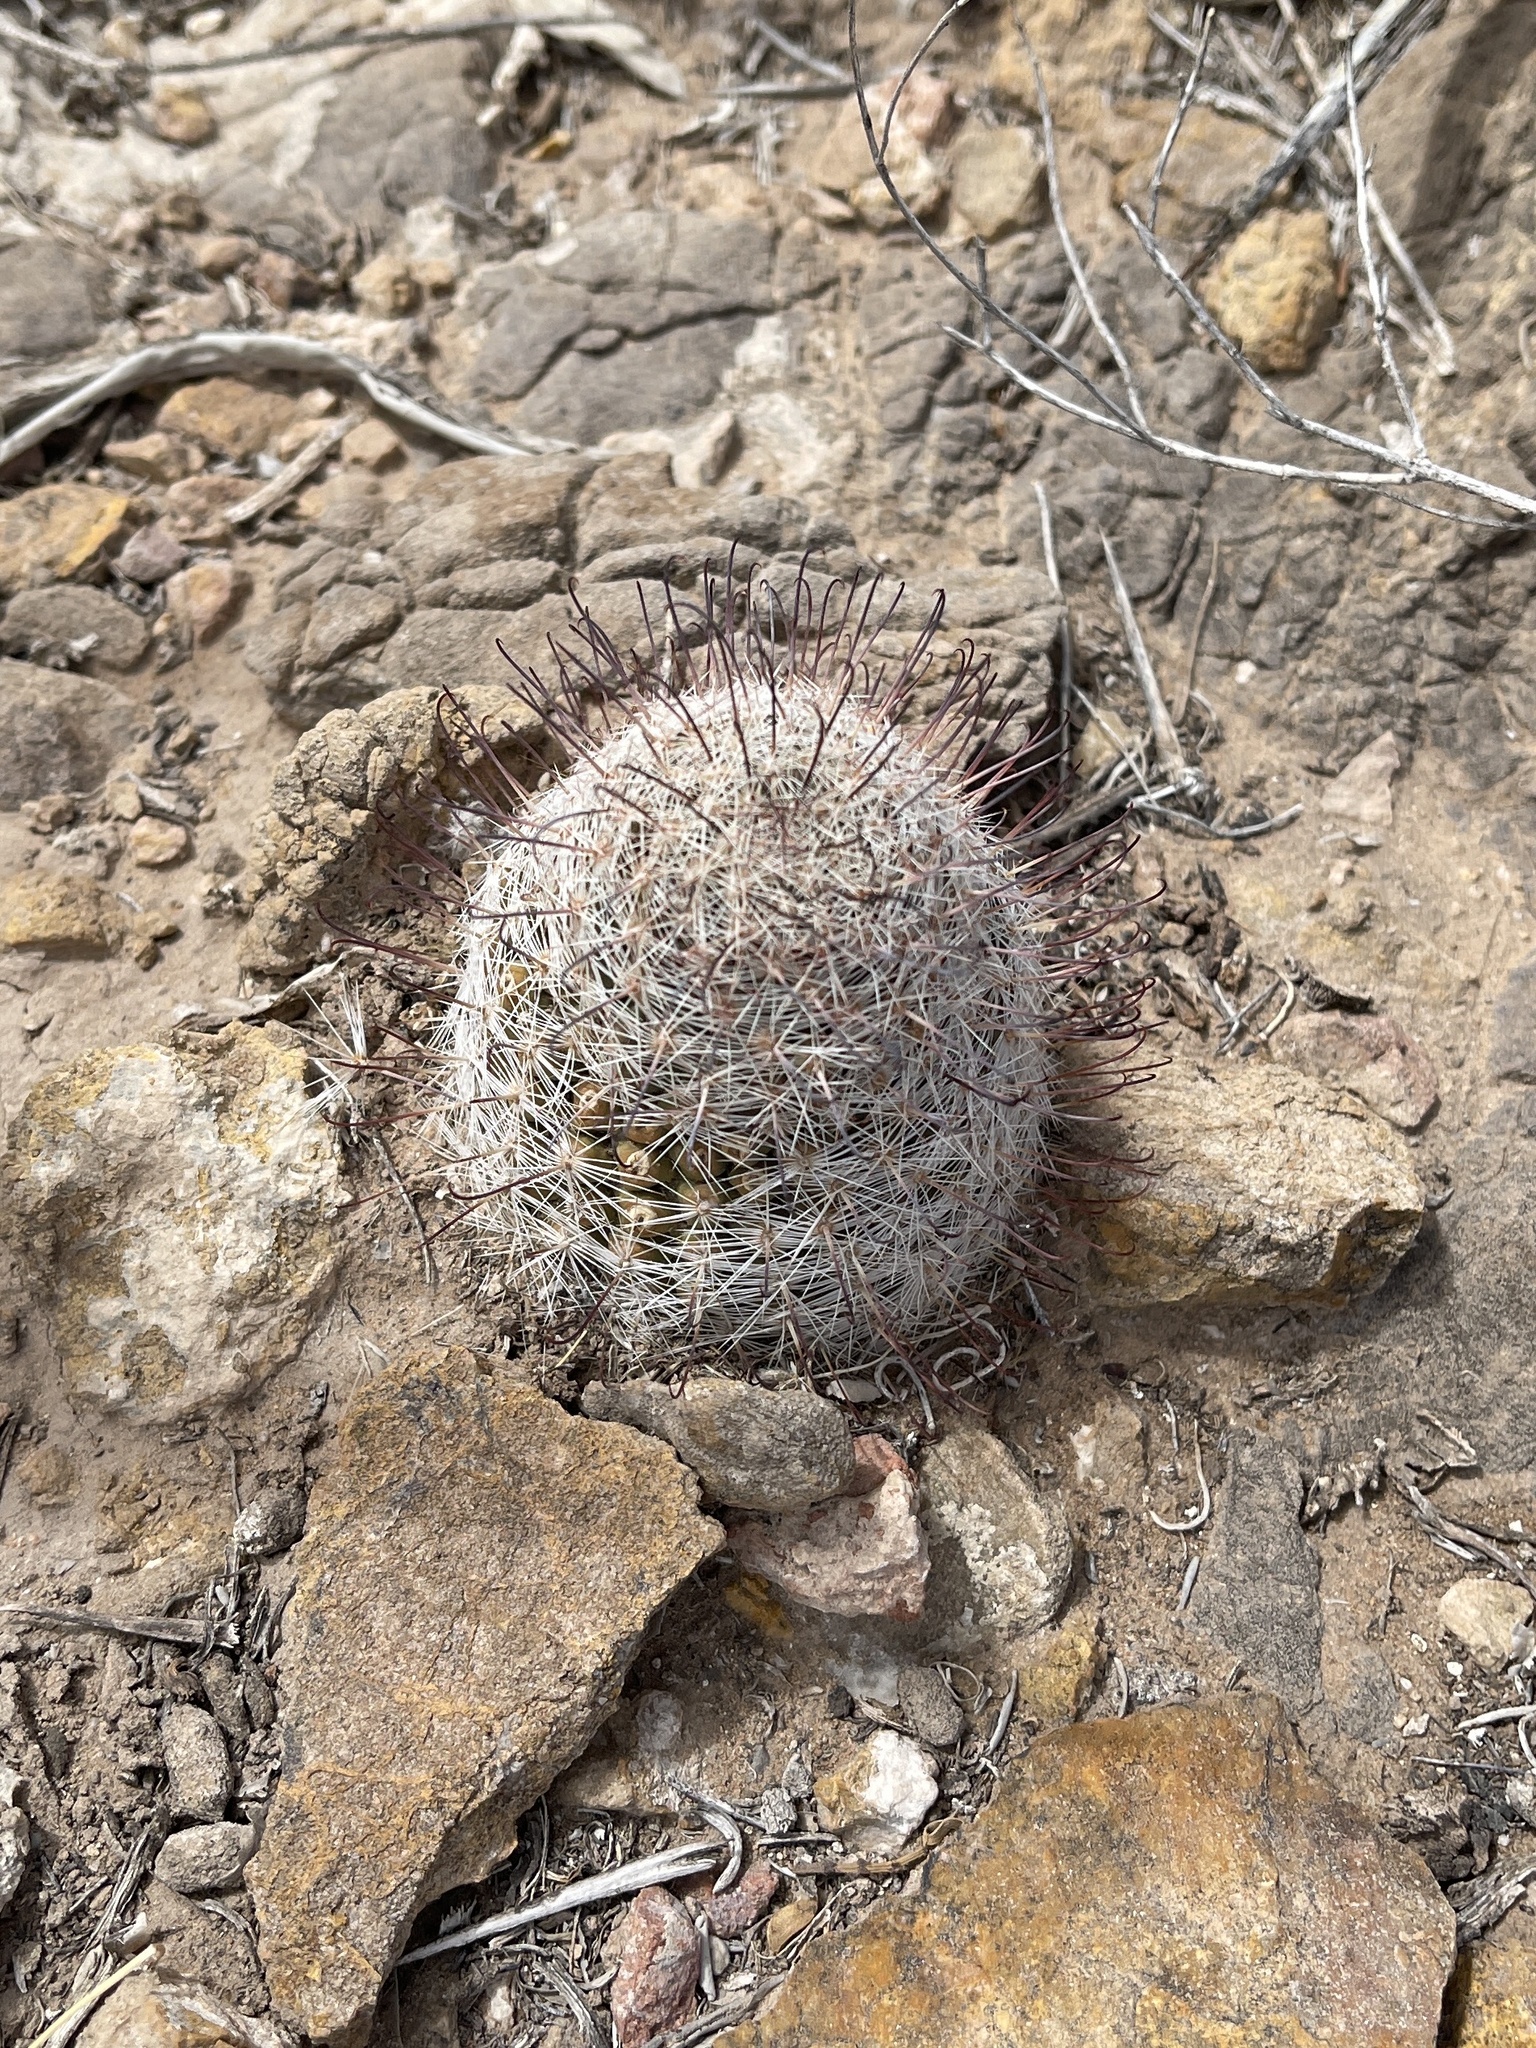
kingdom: Plantae
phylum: Tracheophyta
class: Magnoliopsida
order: Caryophyllales
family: Cactaceae
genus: Cochemiea
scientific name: Cochemiea grahamii
